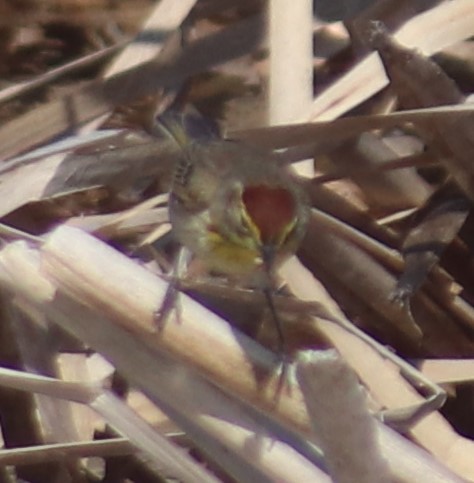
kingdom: Animalia
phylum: Chordata
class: Aves
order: Passeriformes
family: Parulidae
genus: Setophaga
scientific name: Setophaga palmarum
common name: Palm warbler
